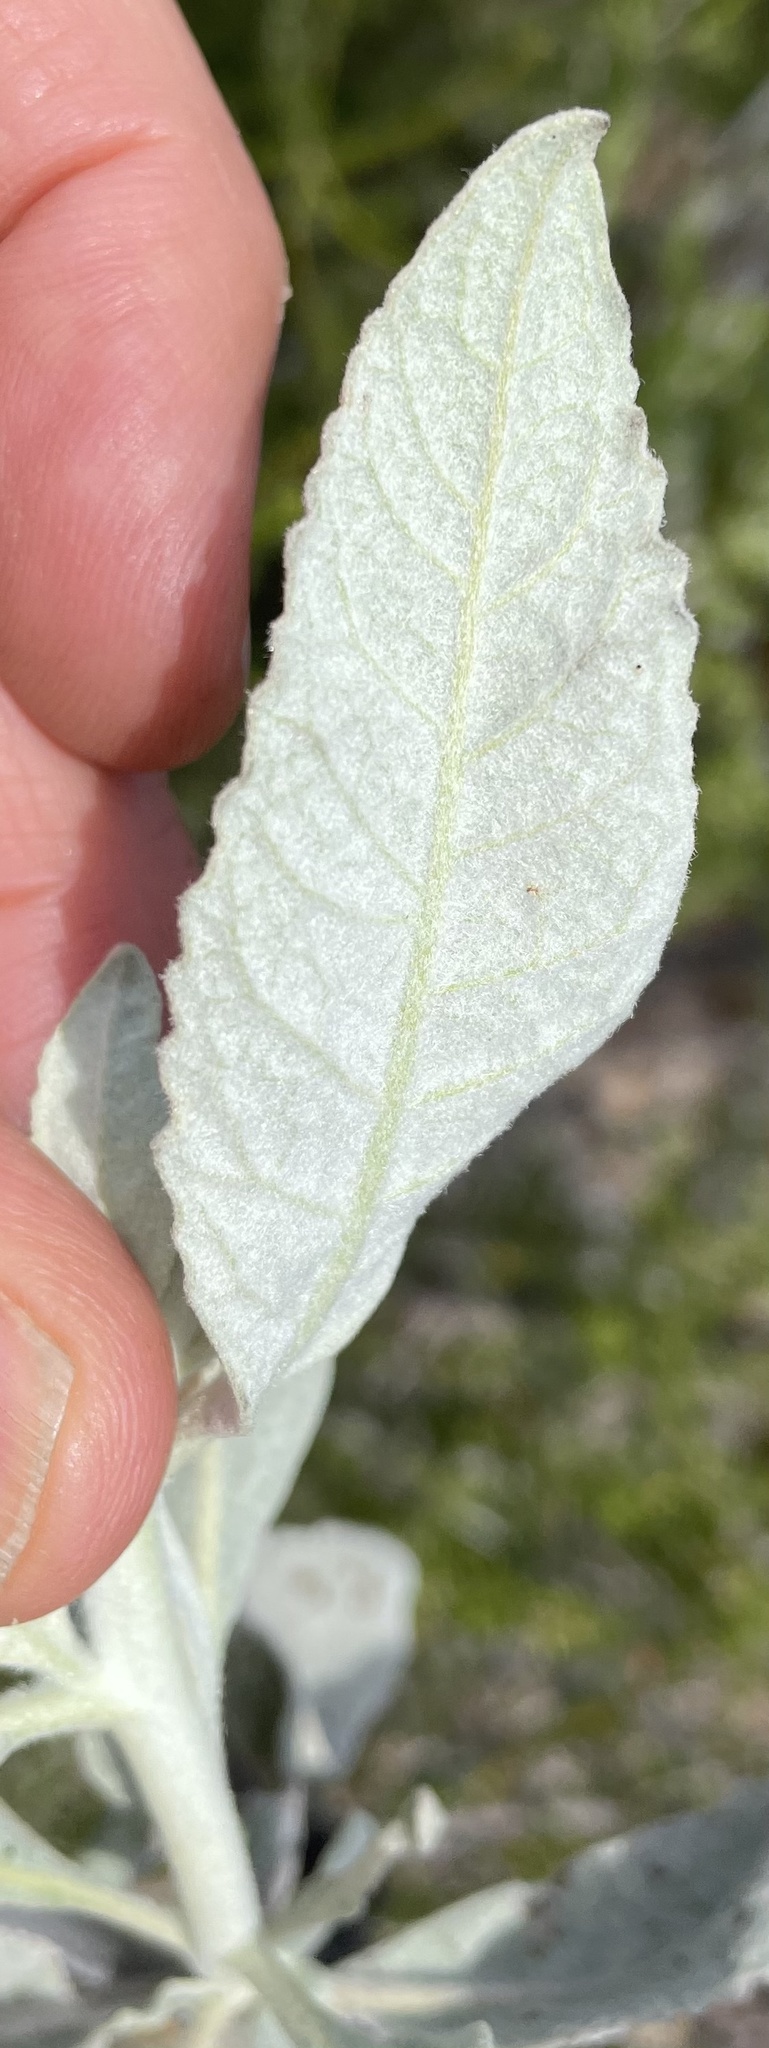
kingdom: Plantae
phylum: Tracheophyta
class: Magnoliopsida
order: Boraginales
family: Namaceae
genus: Eriodictyon
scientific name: Eriodictyon tomentosum
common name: Woolly yerba-santa
